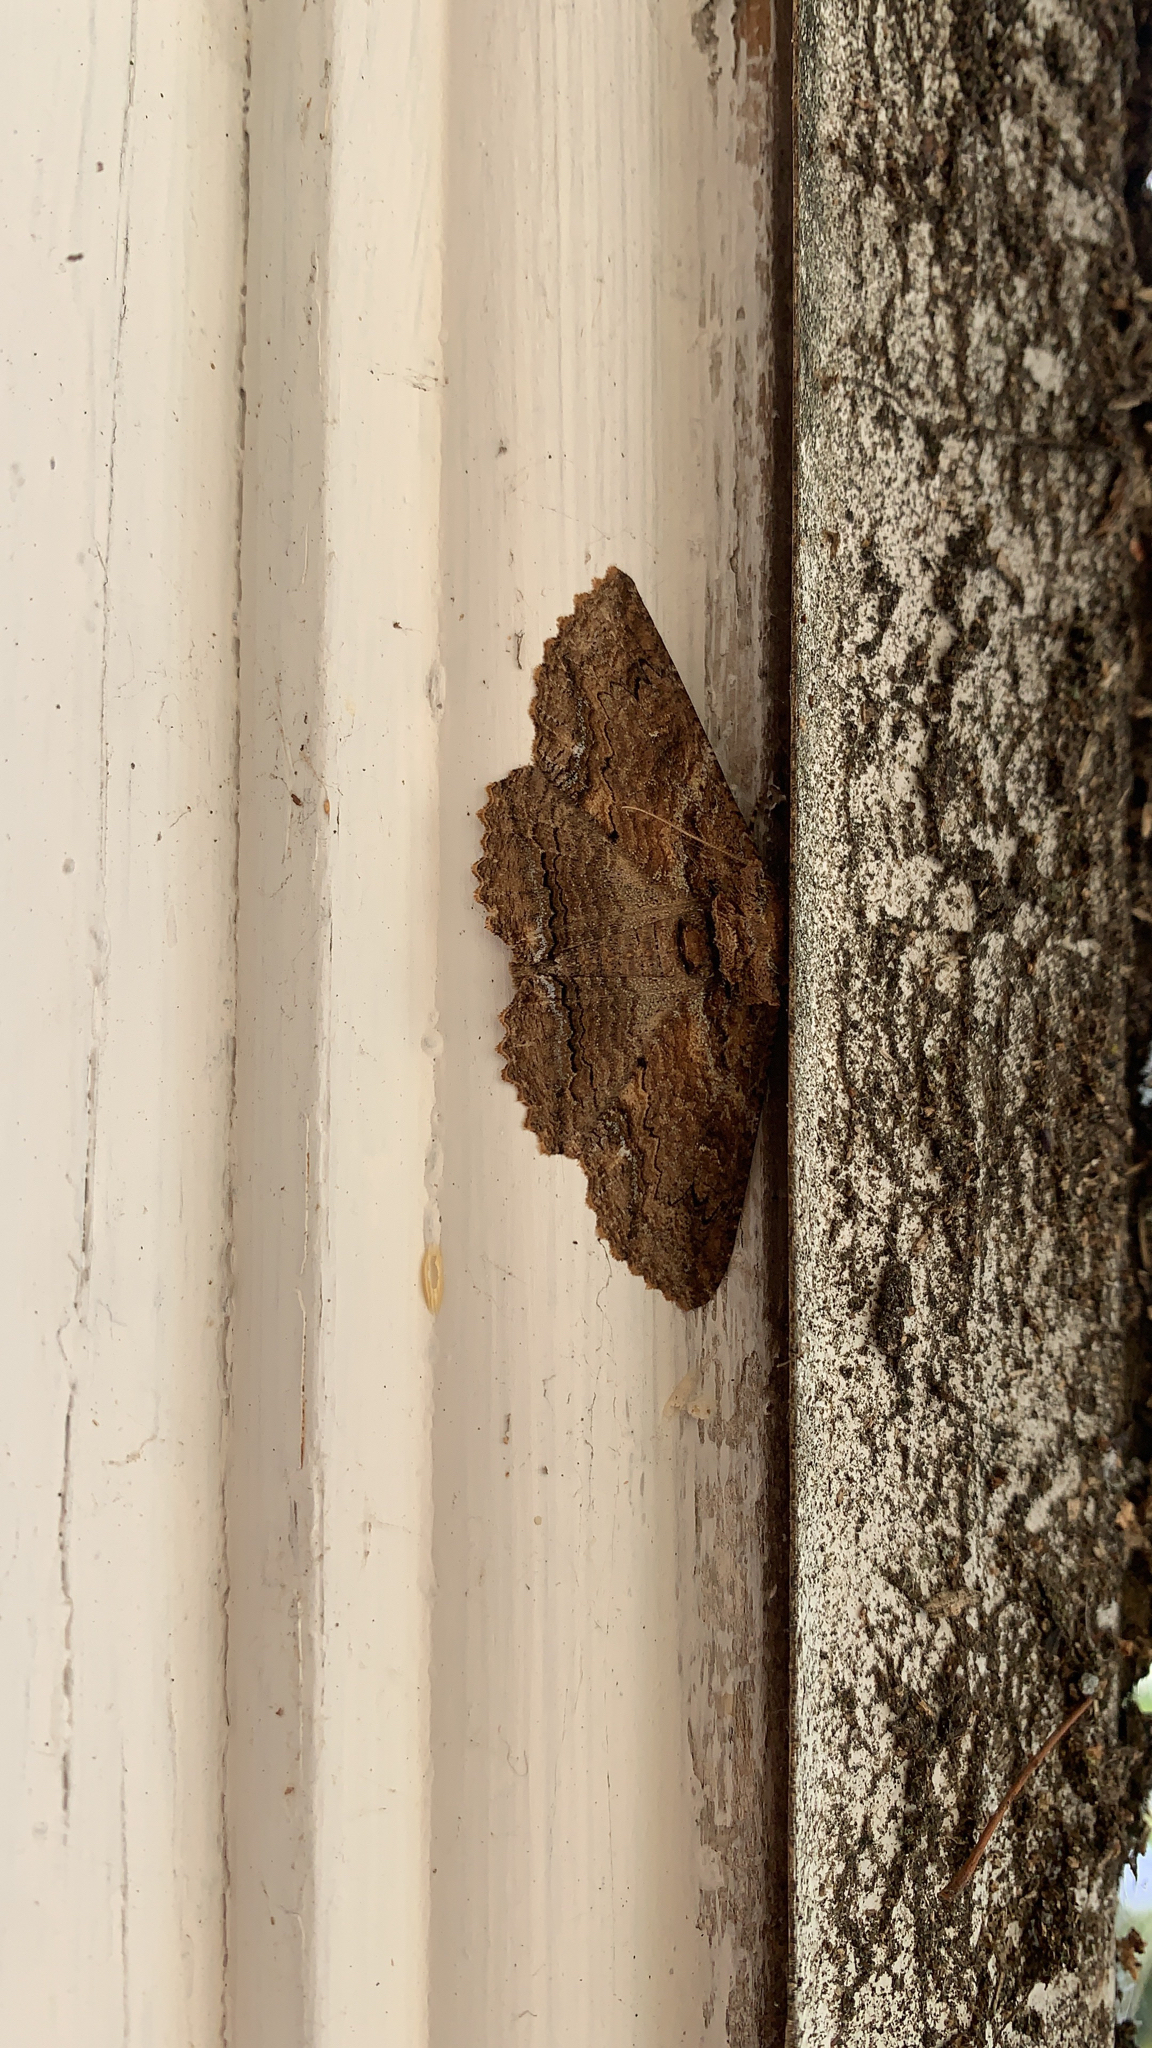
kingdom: Animalia
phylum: Arthropoda
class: Insecta
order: Lepidoptera
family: Erebidae
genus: Zale
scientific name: Zale lunata
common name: Lunate zale moth
